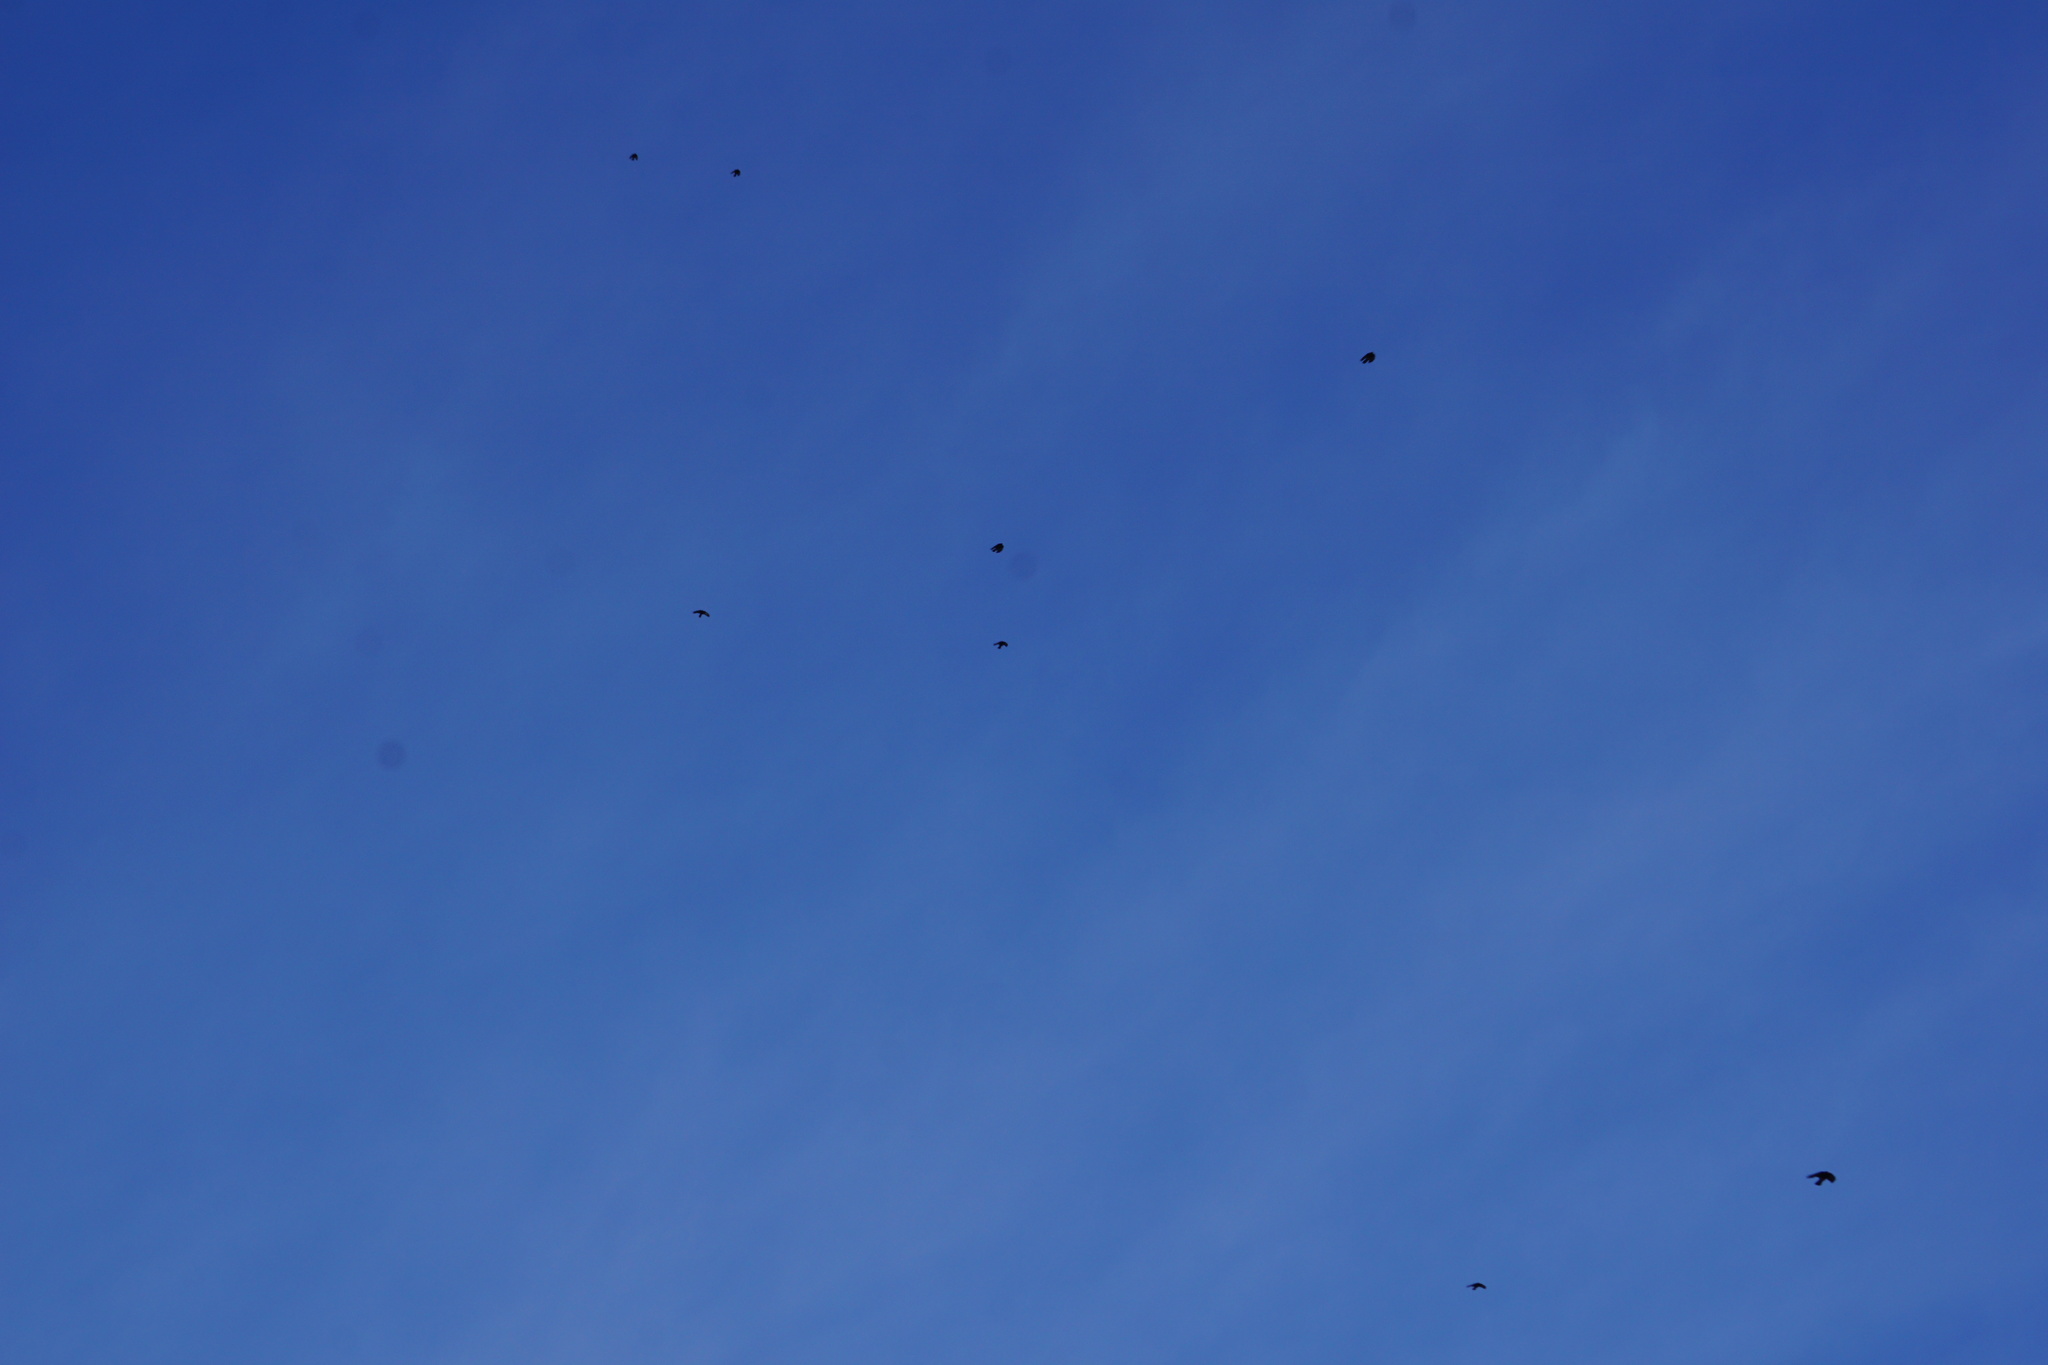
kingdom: Animalia
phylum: Chordata
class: Aves
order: Passeriformes
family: Corvidae
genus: Pyrrhocorax
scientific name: Pyrrhocorax graculus
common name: Alpine chough
